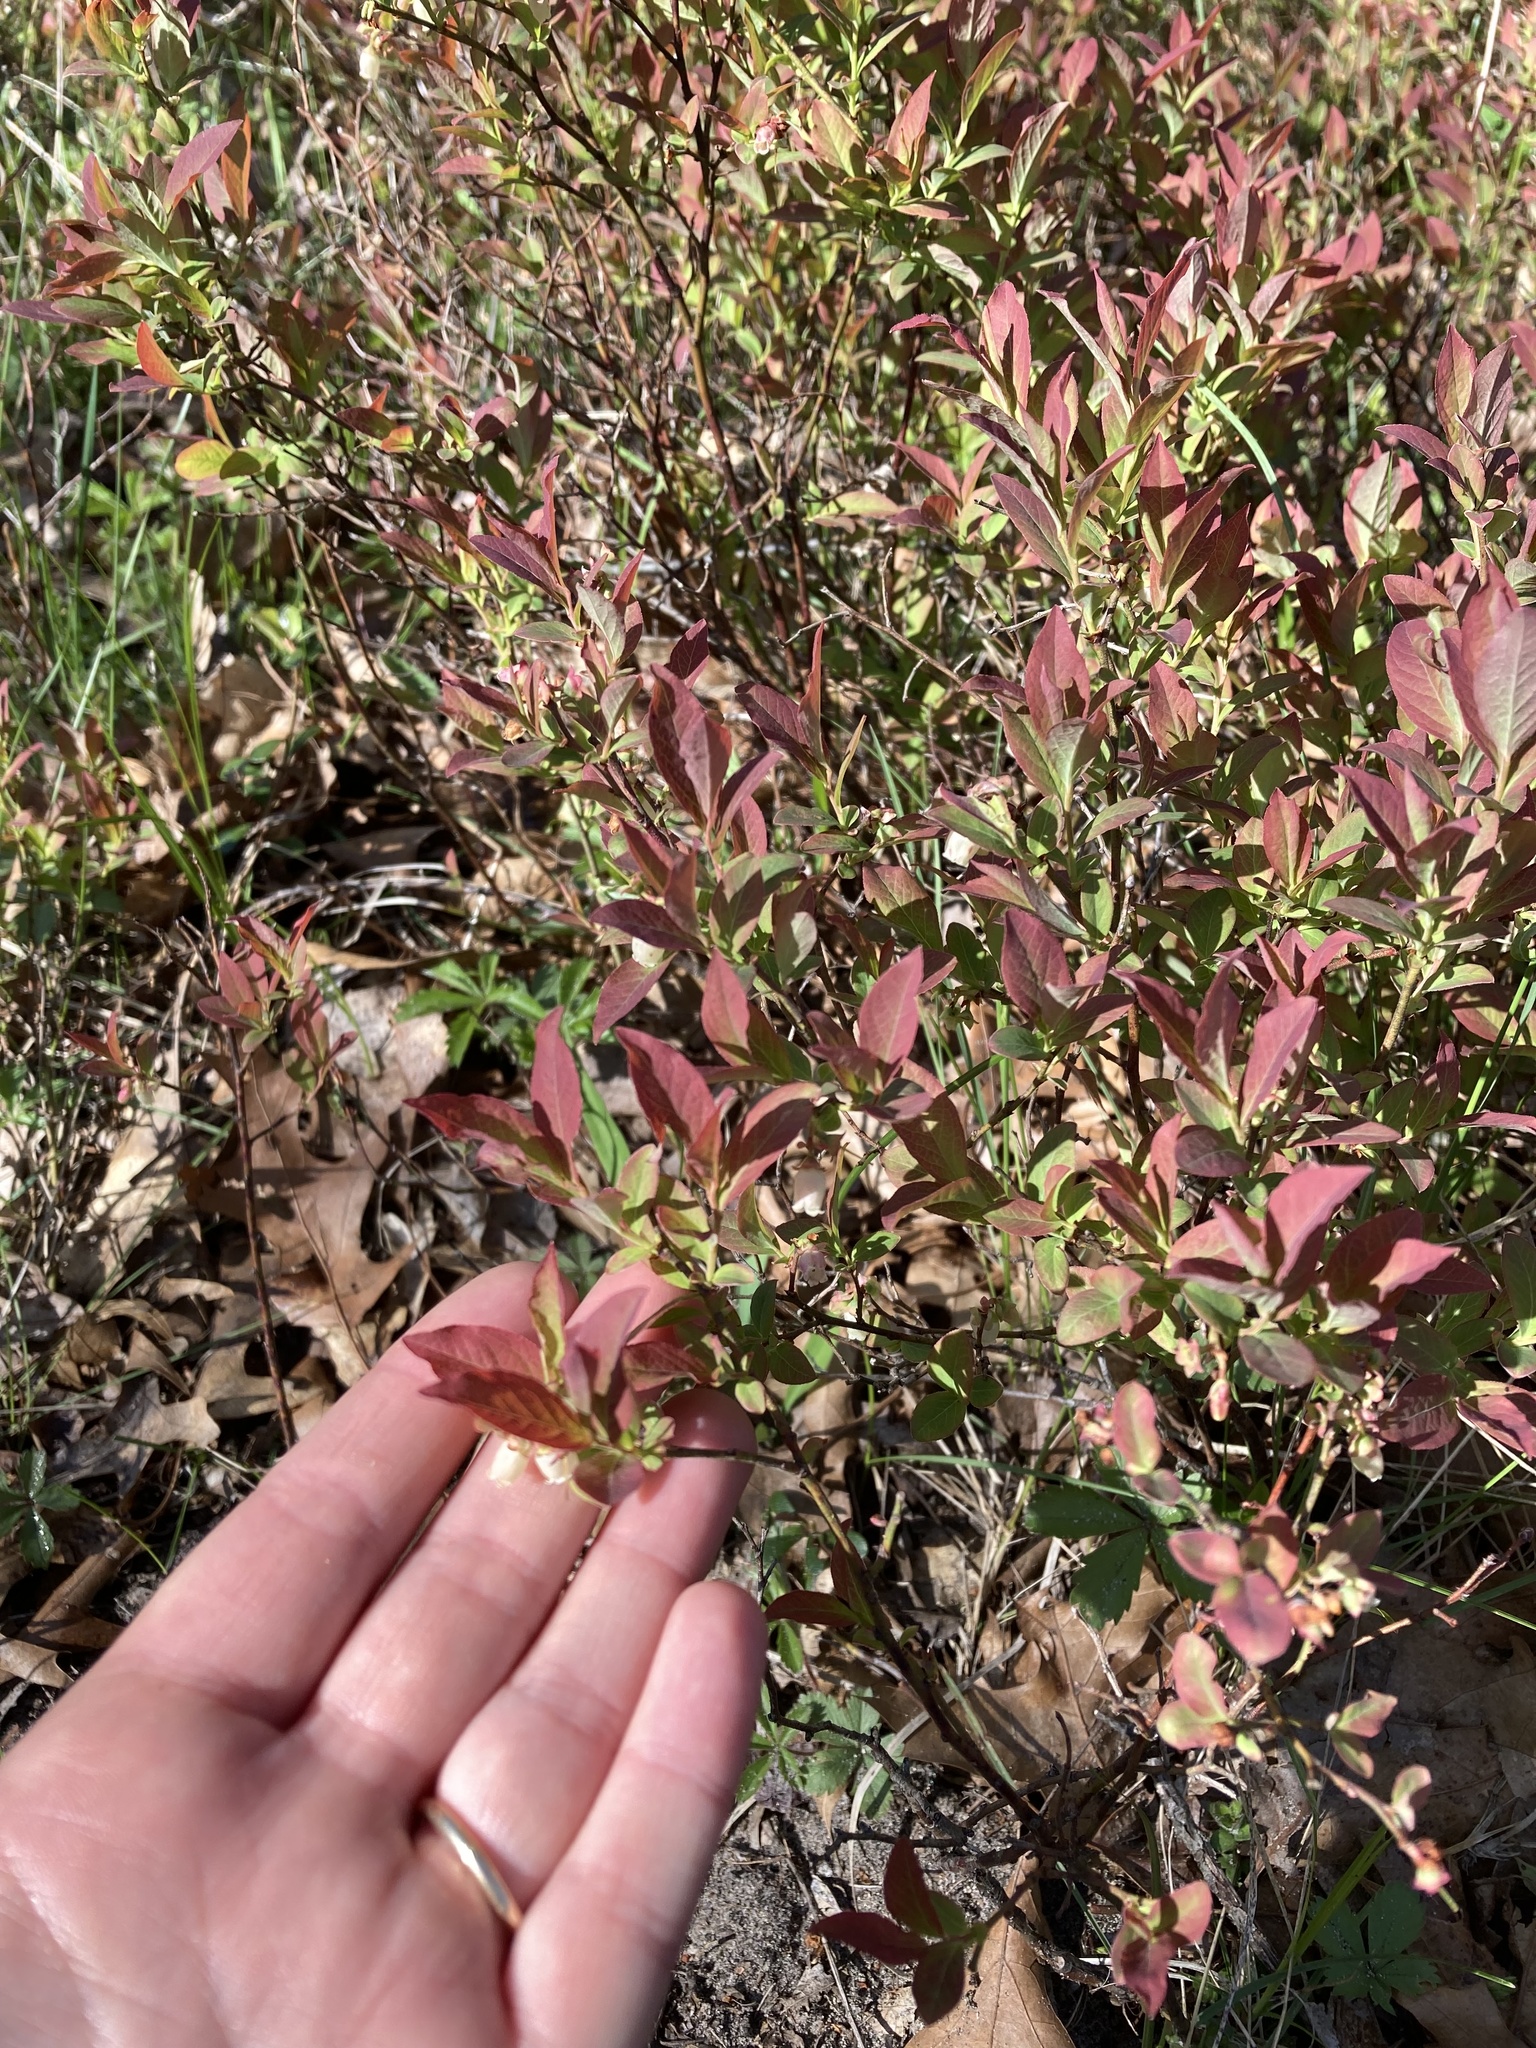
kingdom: Plantae
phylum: Tracheophyta
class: Magnoliopsida
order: Ericales
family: Ericaceae
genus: Vaccinium
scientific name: Vaccinium angustifolium
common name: Early lowbush blueberry
